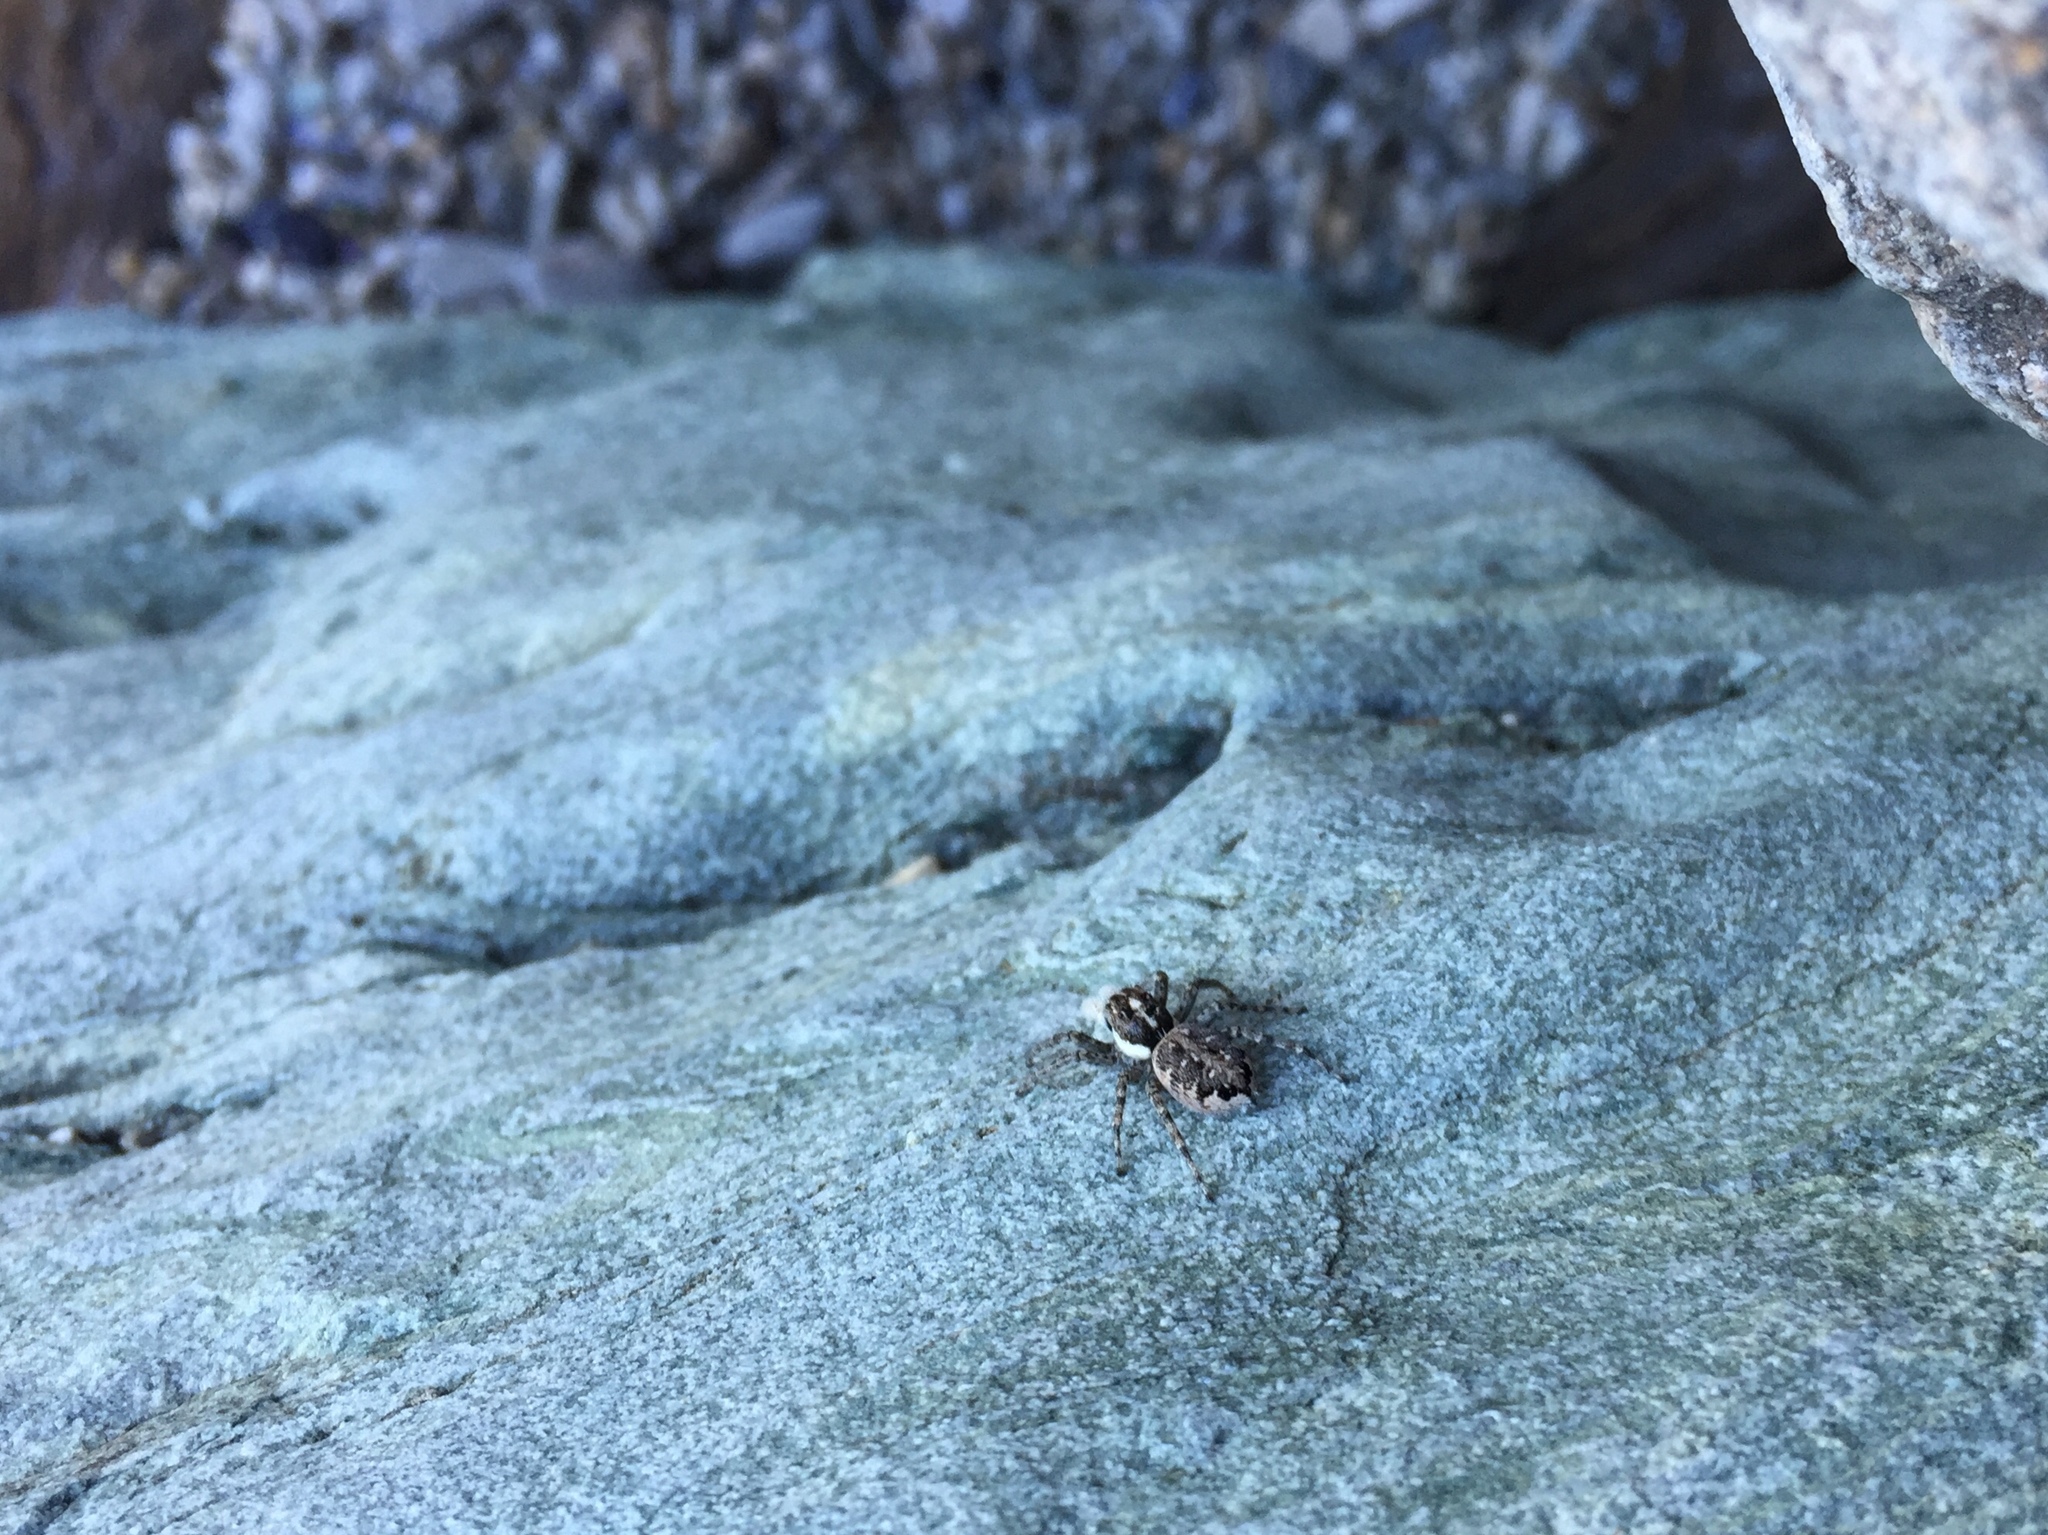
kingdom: Animalia
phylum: Arthropoda
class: Arachnida
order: Araneae
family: Salticidae
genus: Menemerus
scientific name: Menemerus semilimbatus
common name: Jumping spider
